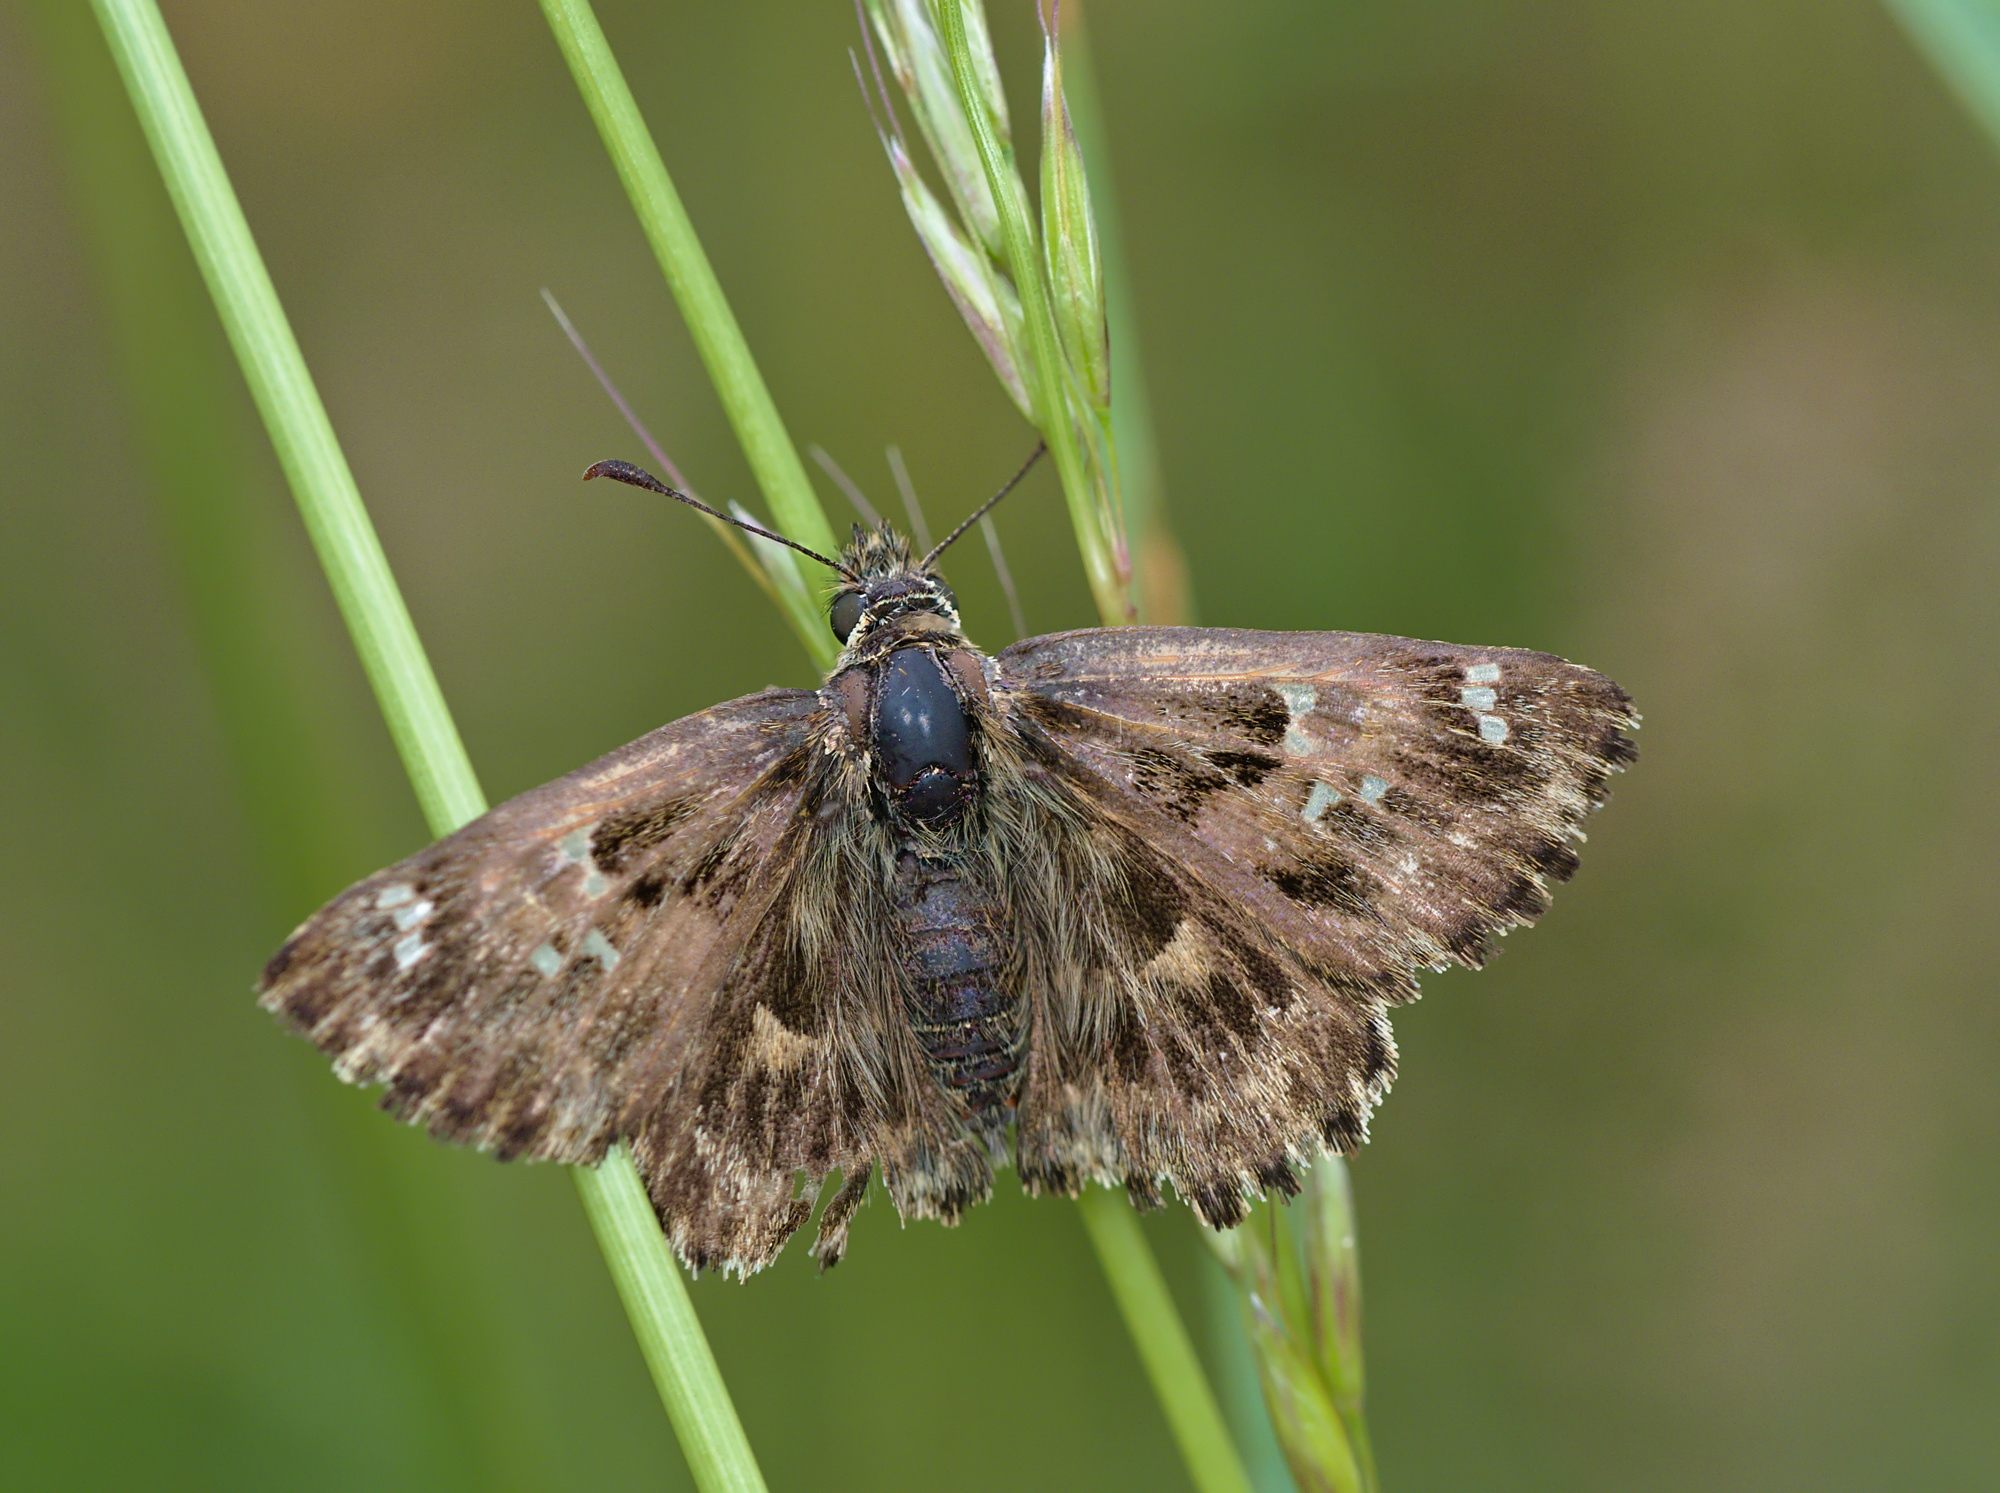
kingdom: Animalia
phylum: Arthropoda
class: Insecta
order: Lepidoptera
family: Hesperiidae
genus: Carcharodus
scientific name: Carcharodus alceae
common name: Mallow skipper
